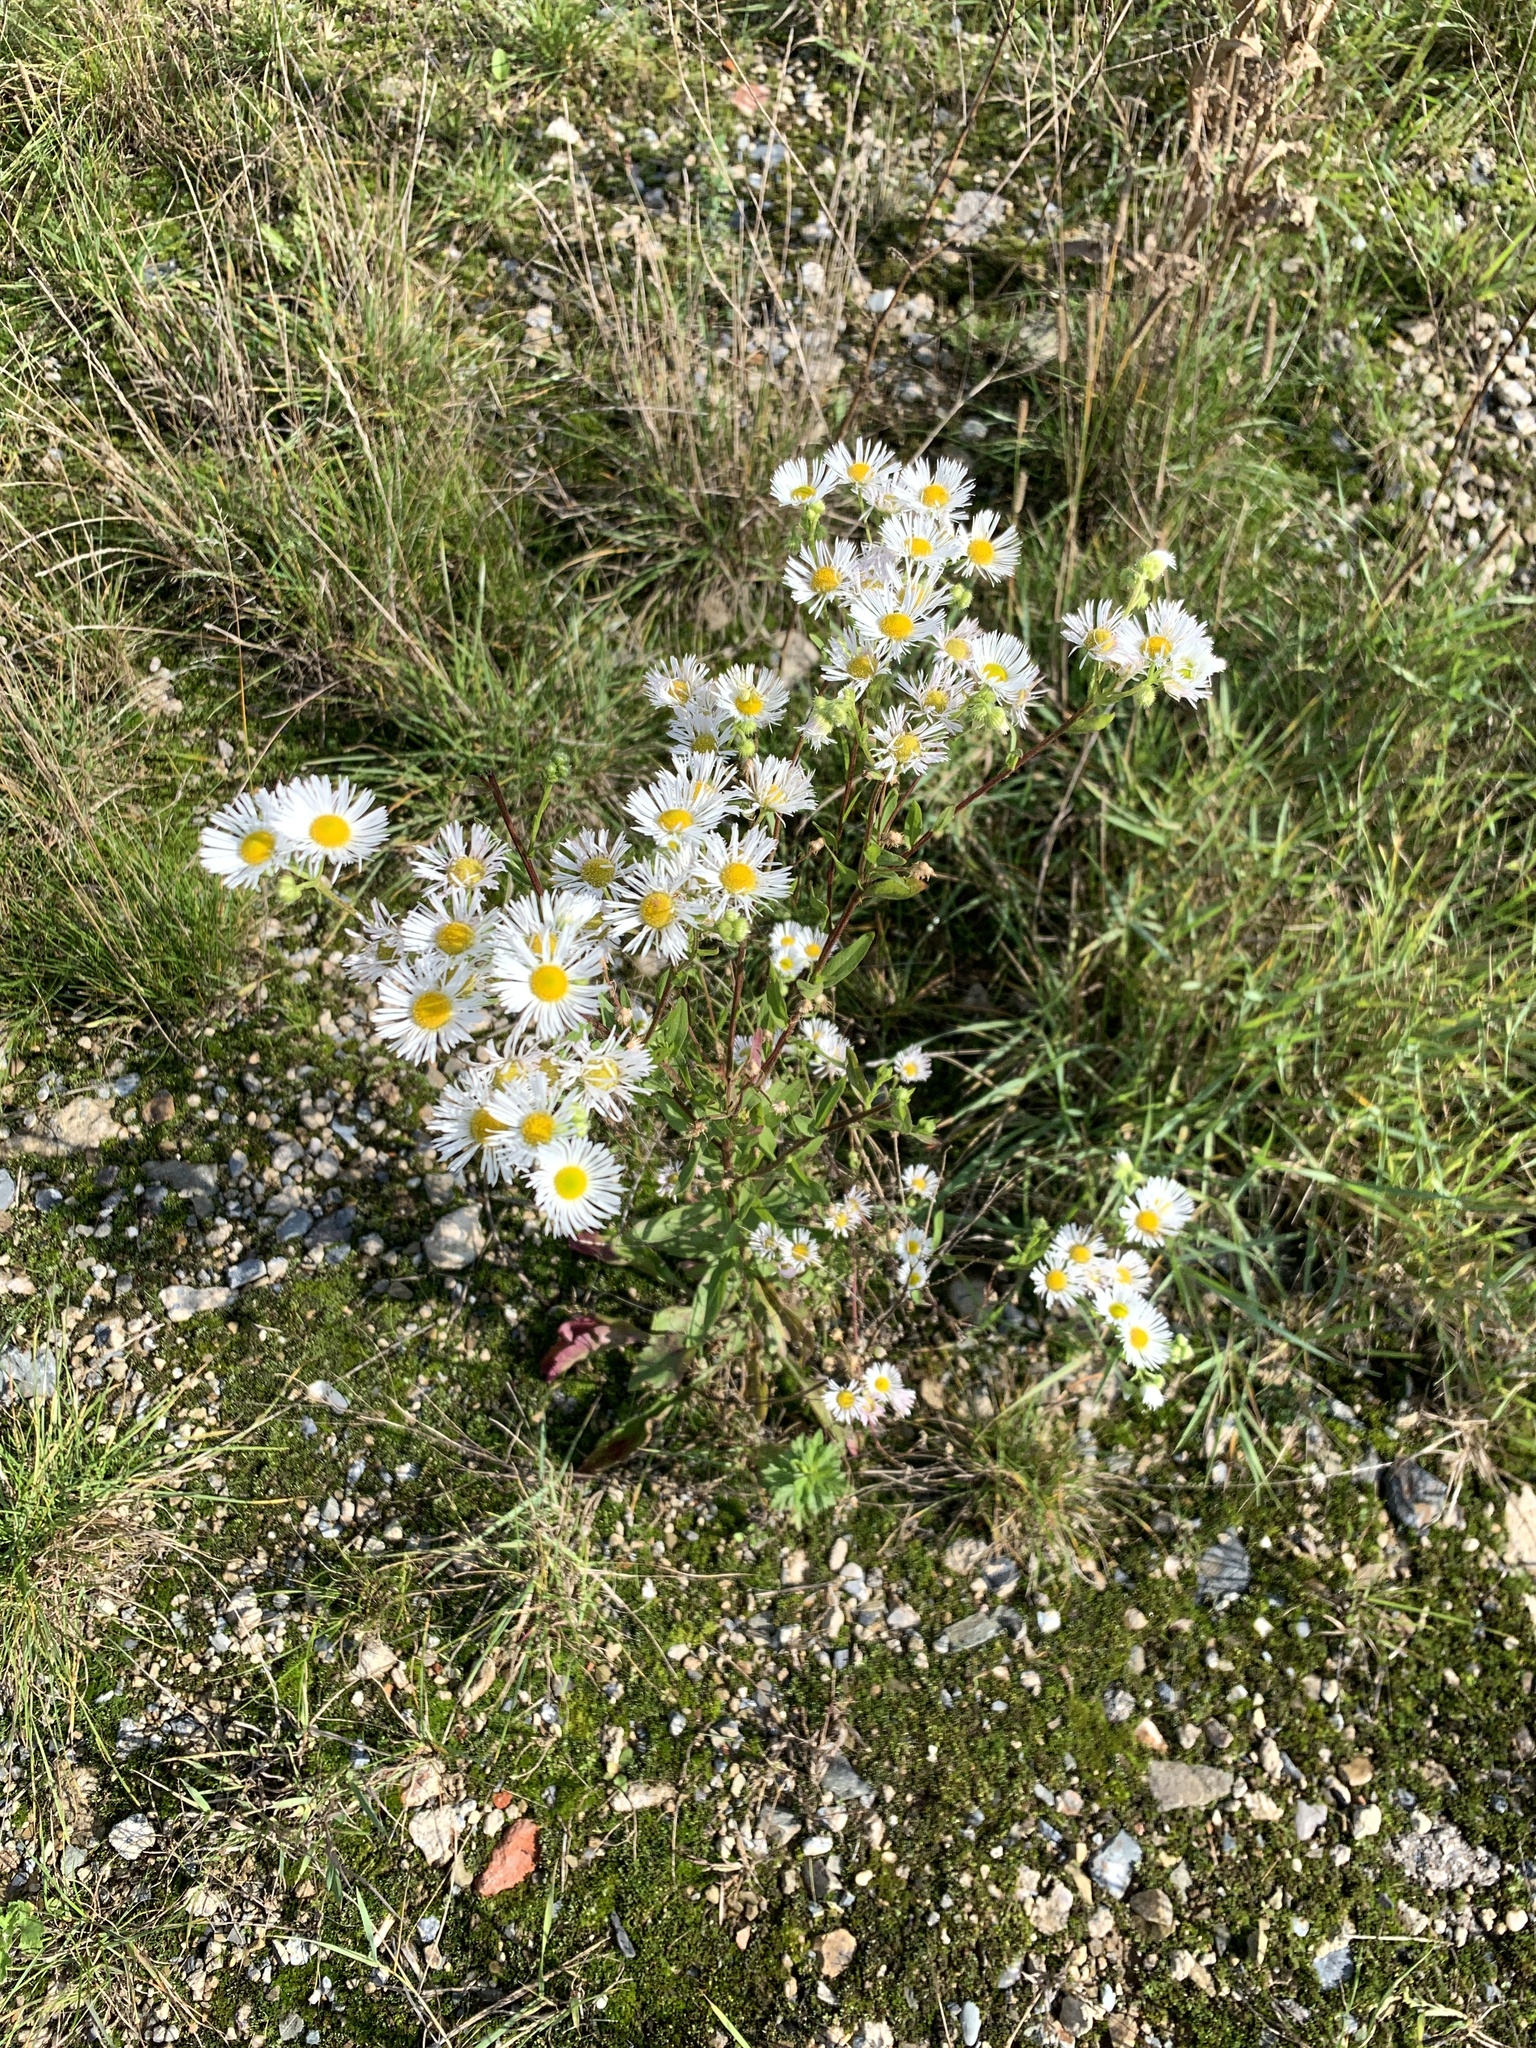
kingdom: Plantae
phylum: Tracheophyta
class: Magnoliopsida
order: Asterales
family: Asteraceae
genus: Erigeron
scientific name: Erigeron annuus
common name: Tall fleabane
